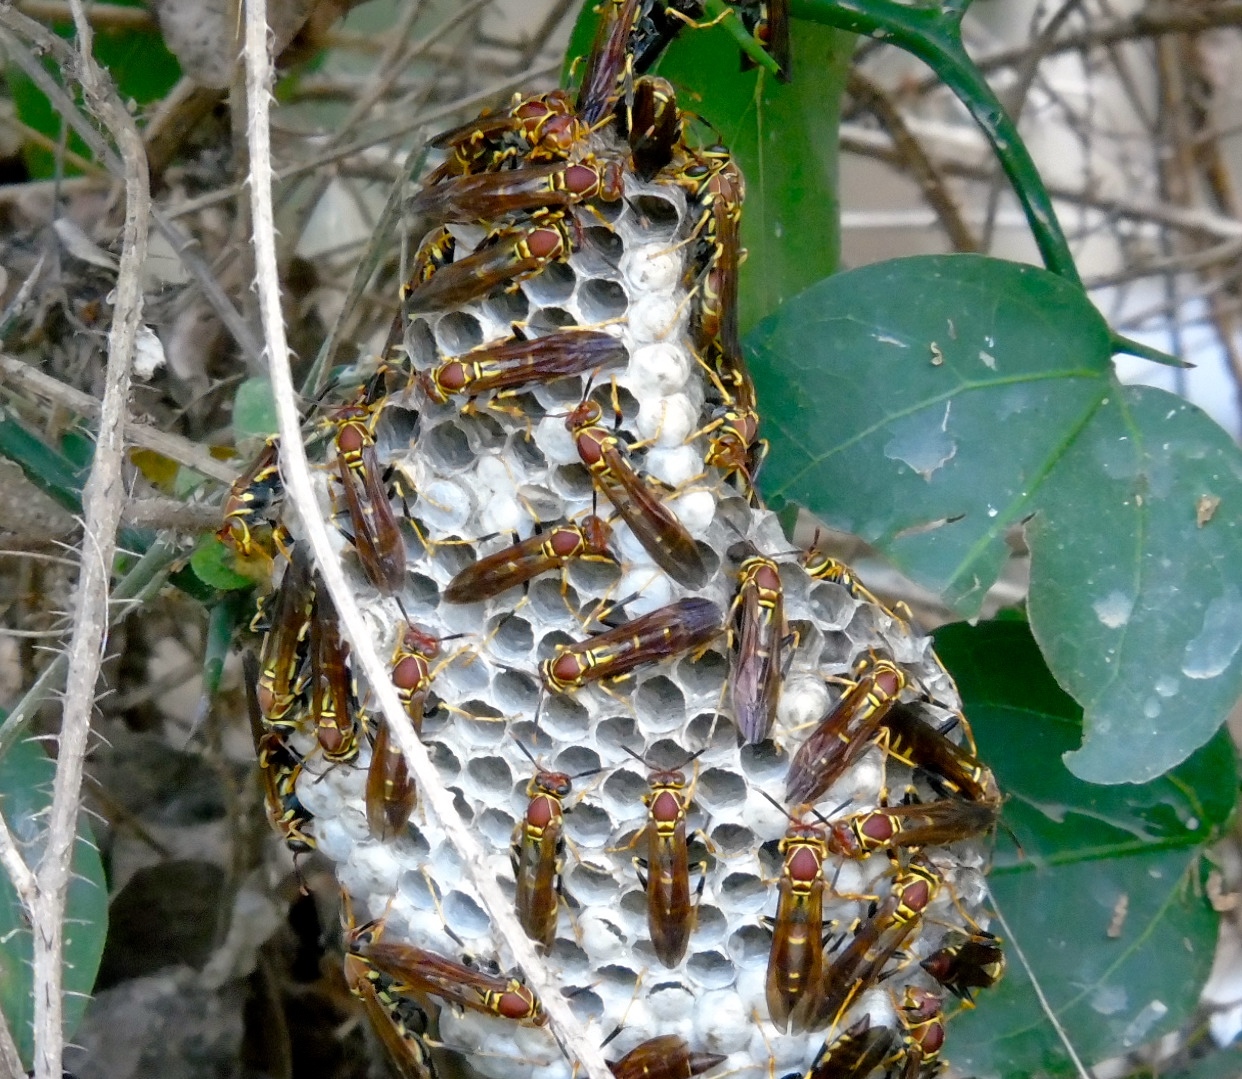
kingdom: Animalia
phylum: Arthropoda
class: Insecta
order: Hymenoptera
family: Eumenidae
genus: Polistes
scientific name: Polistes instabilis
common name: Unstable paper wasp
